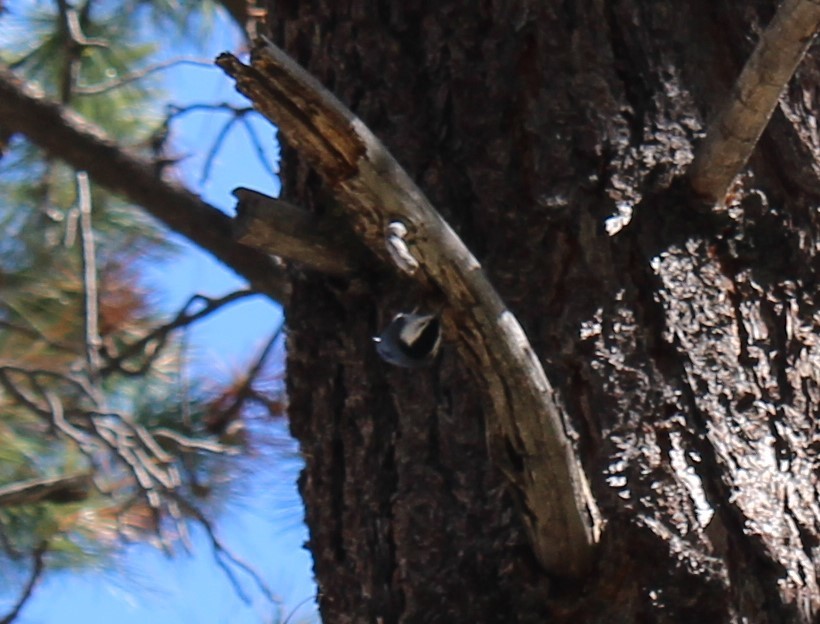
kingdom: Animalia
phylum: Chordata
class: Aves
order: Passeriformes
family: Sittidae
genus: Sitta
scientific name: Sitta carolinensis
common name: White-breasted nuthatch
